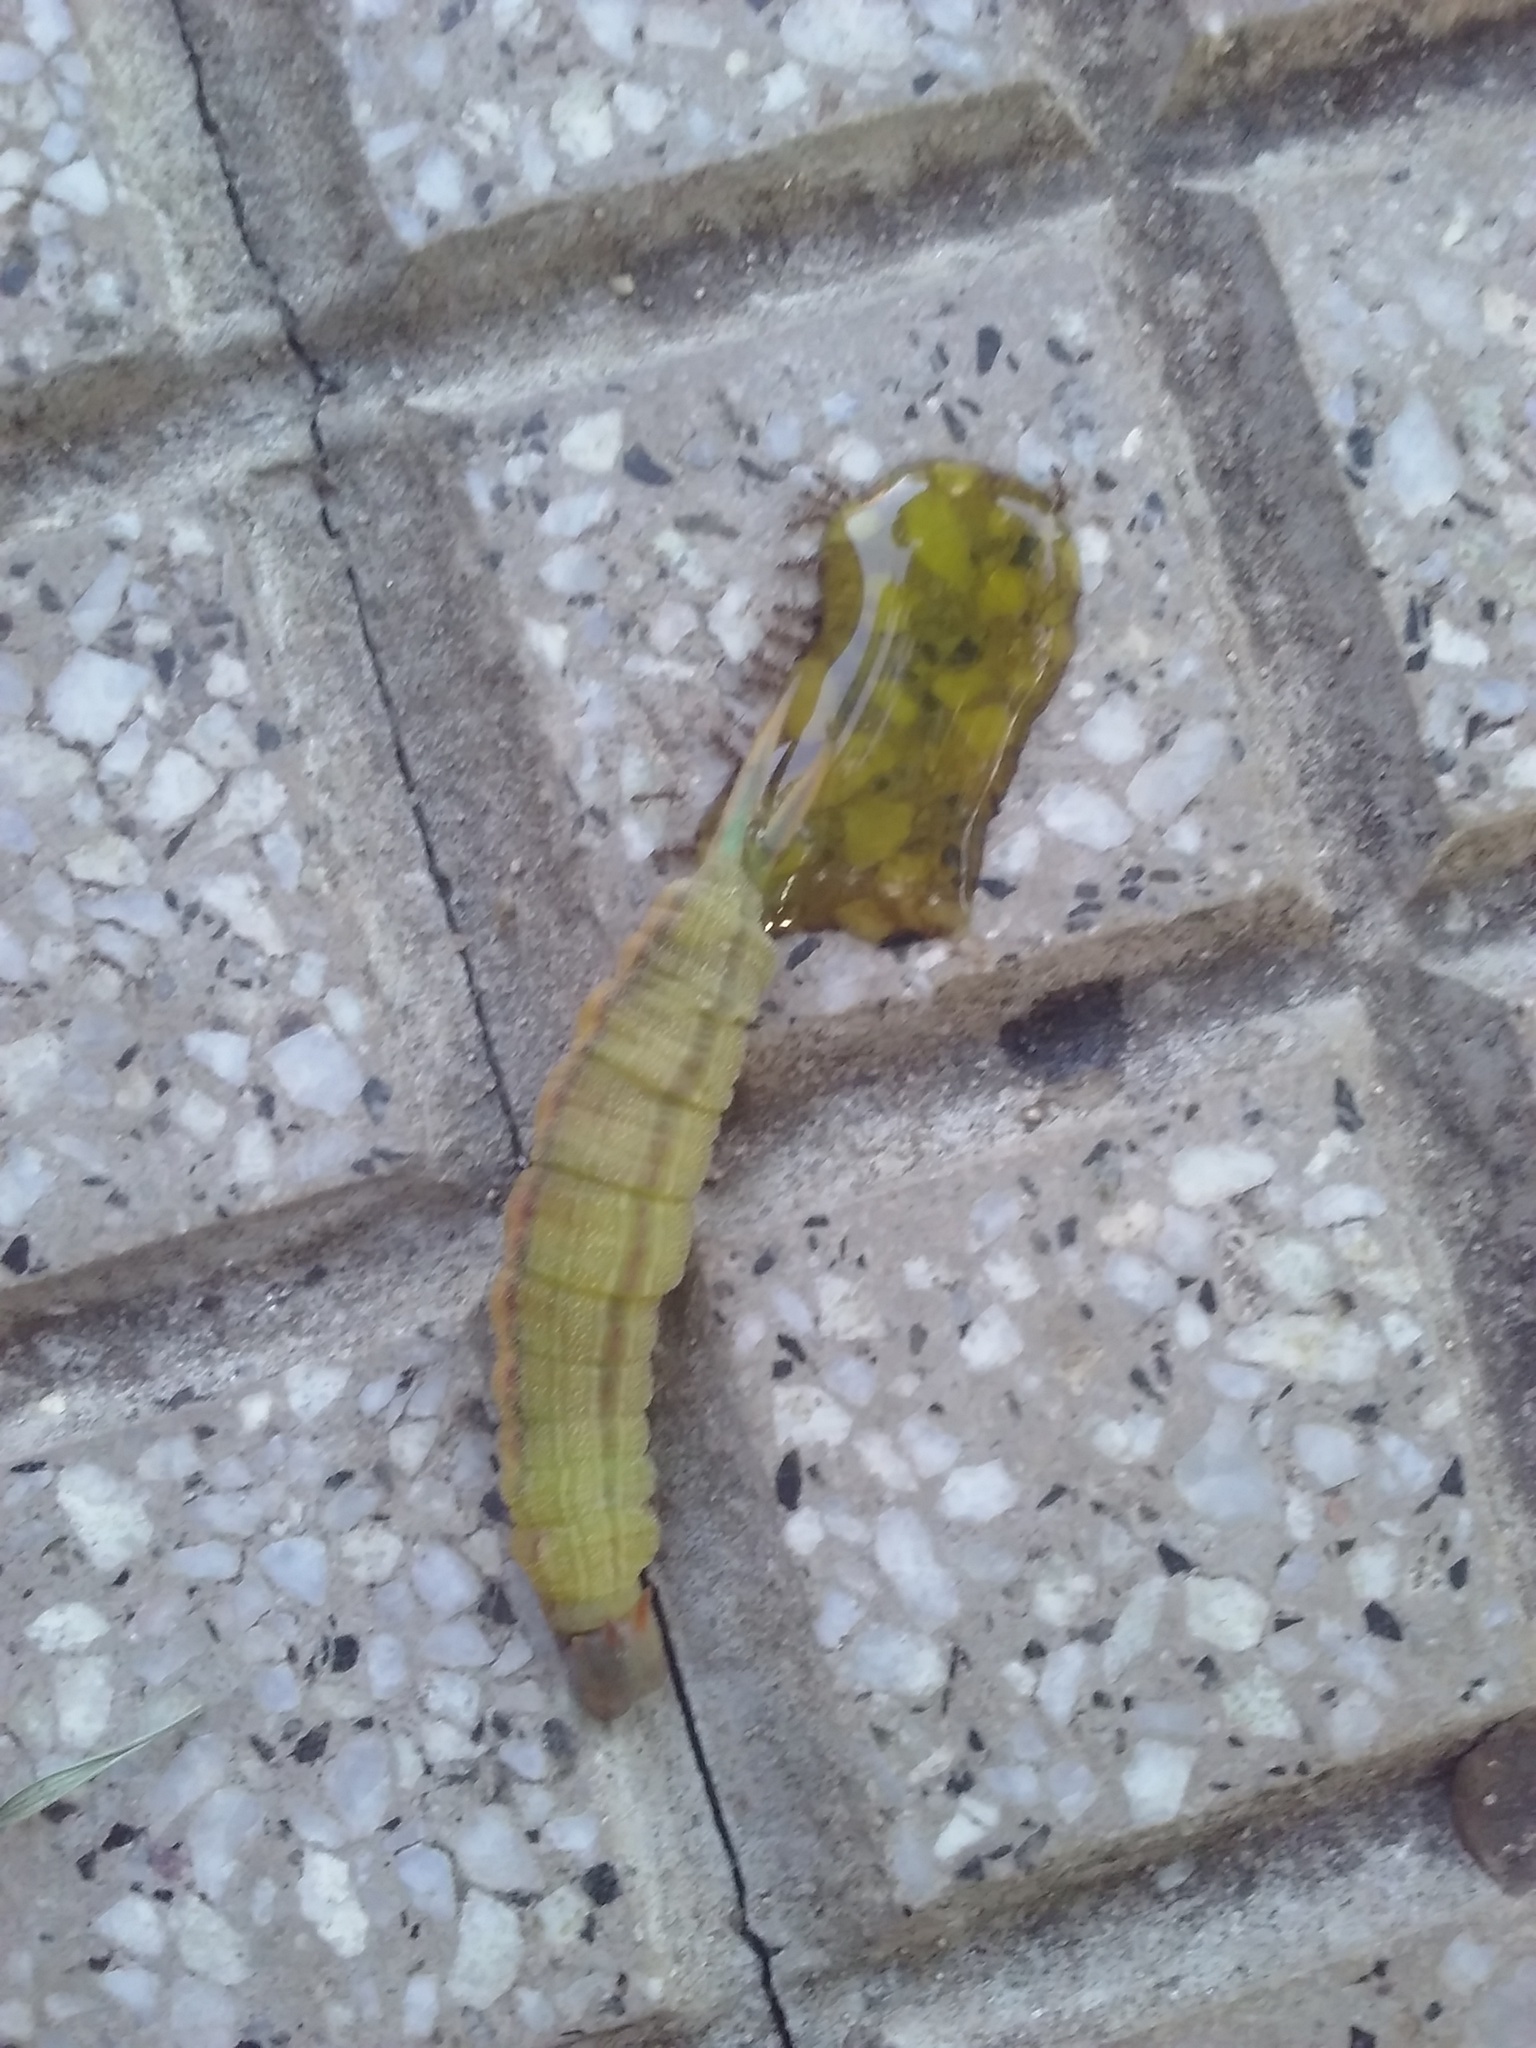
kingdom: Animalia
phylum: Arthropoda
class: Insecta
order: Lepidoptera
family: Nymphalidae
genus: Opsiphanes
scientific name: Opsiphanes invirae
